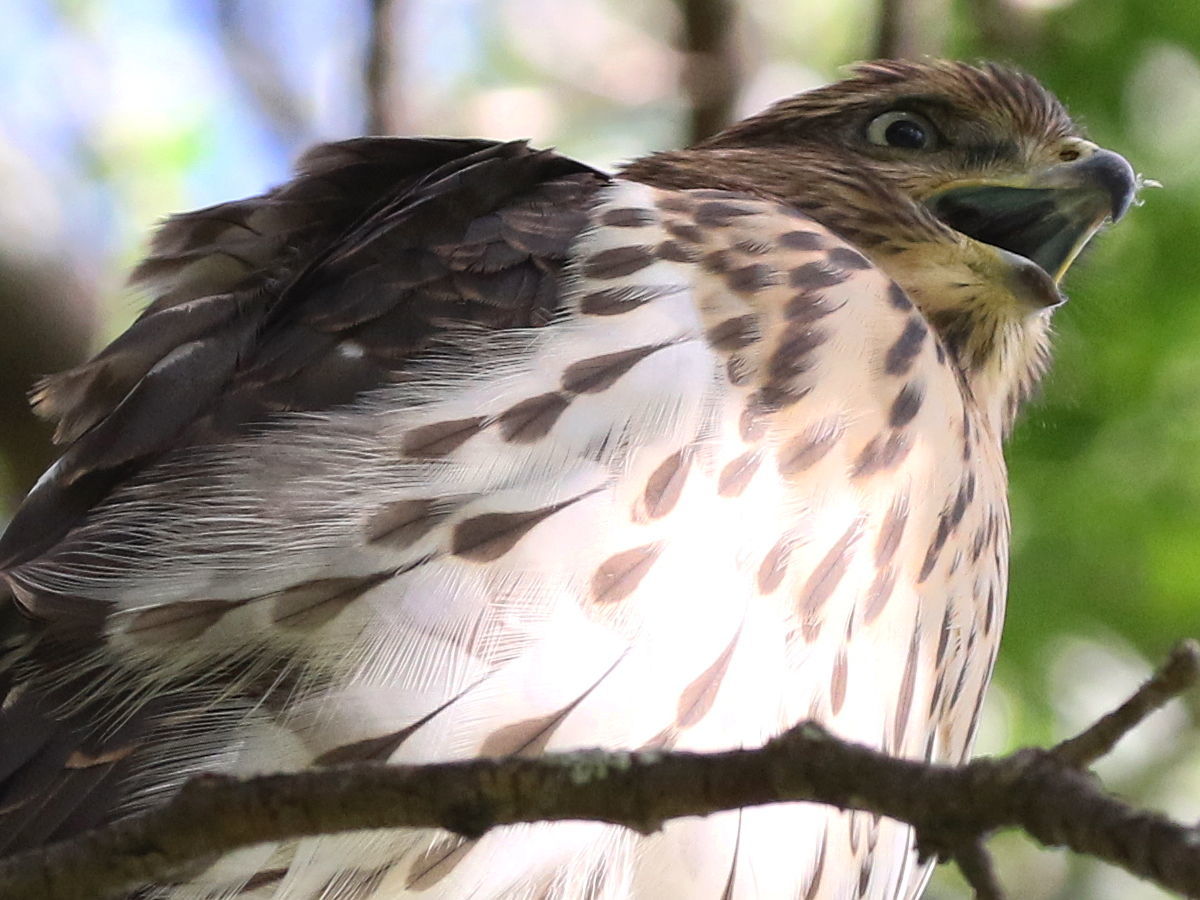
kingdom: Animalia
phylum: Chordata
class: Aves
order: Accipitriformes
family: Accipitridae
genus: Accipiter
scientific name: Accipiter cooperii
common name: Cooper's hawk
